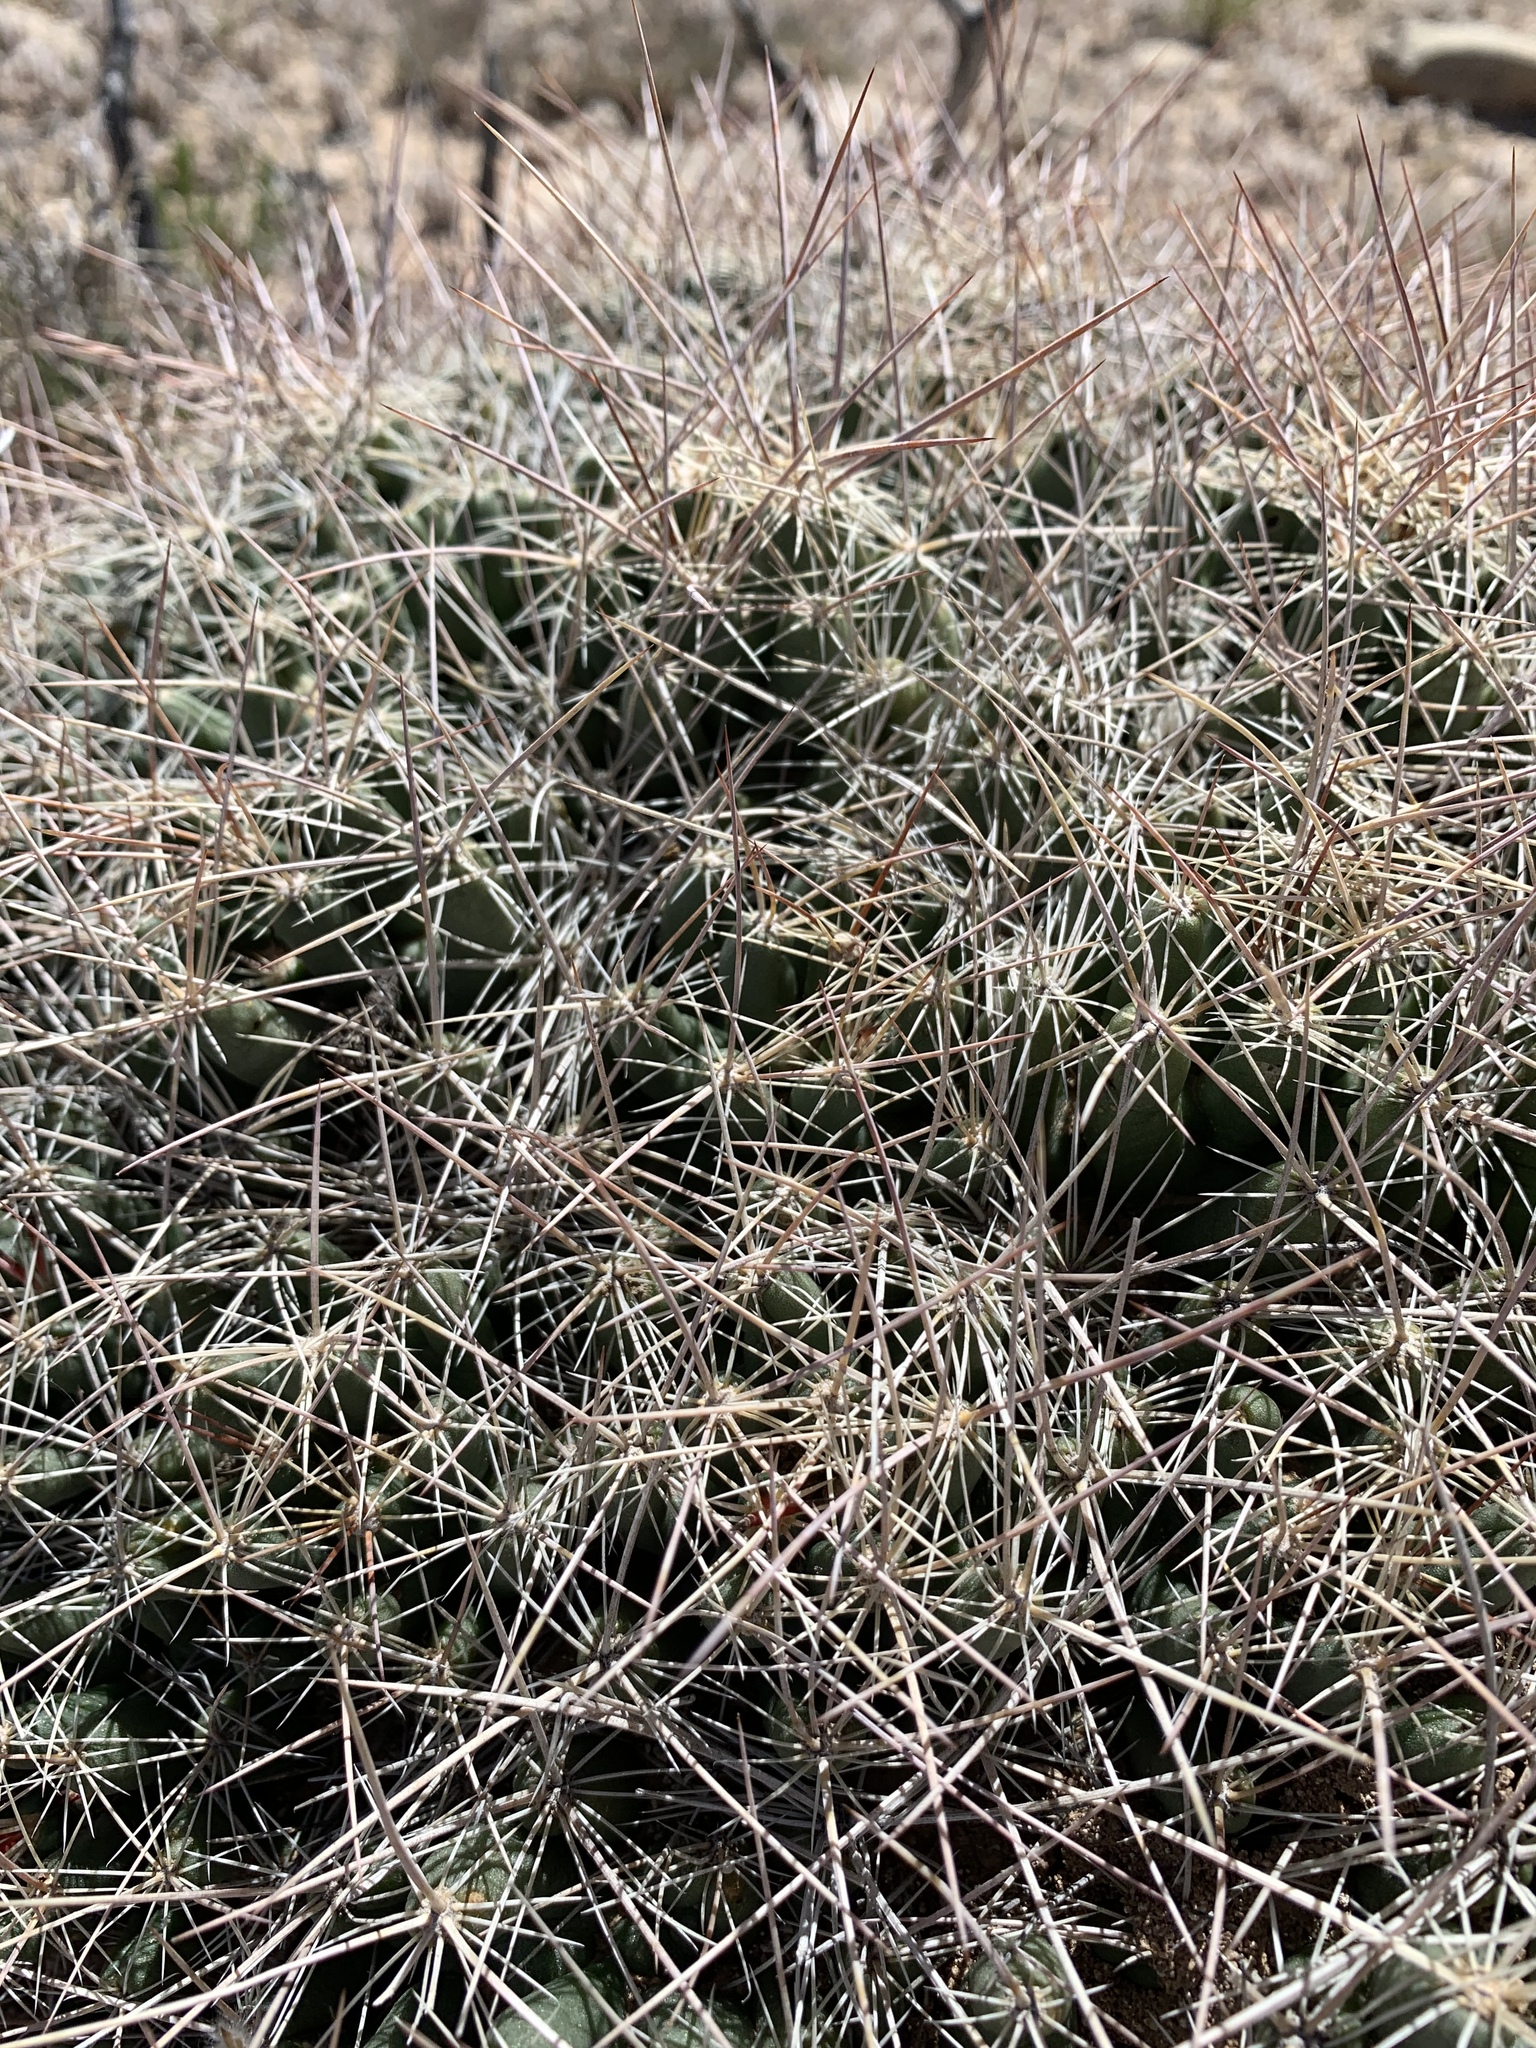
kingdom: Plantae
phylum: Tracheophyta
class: Magnoliopsida
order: Caryophyllales
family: Cactaceae
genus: Coryphantha
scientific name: Coryphantha macromeris
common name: Nipple beehive cactus
